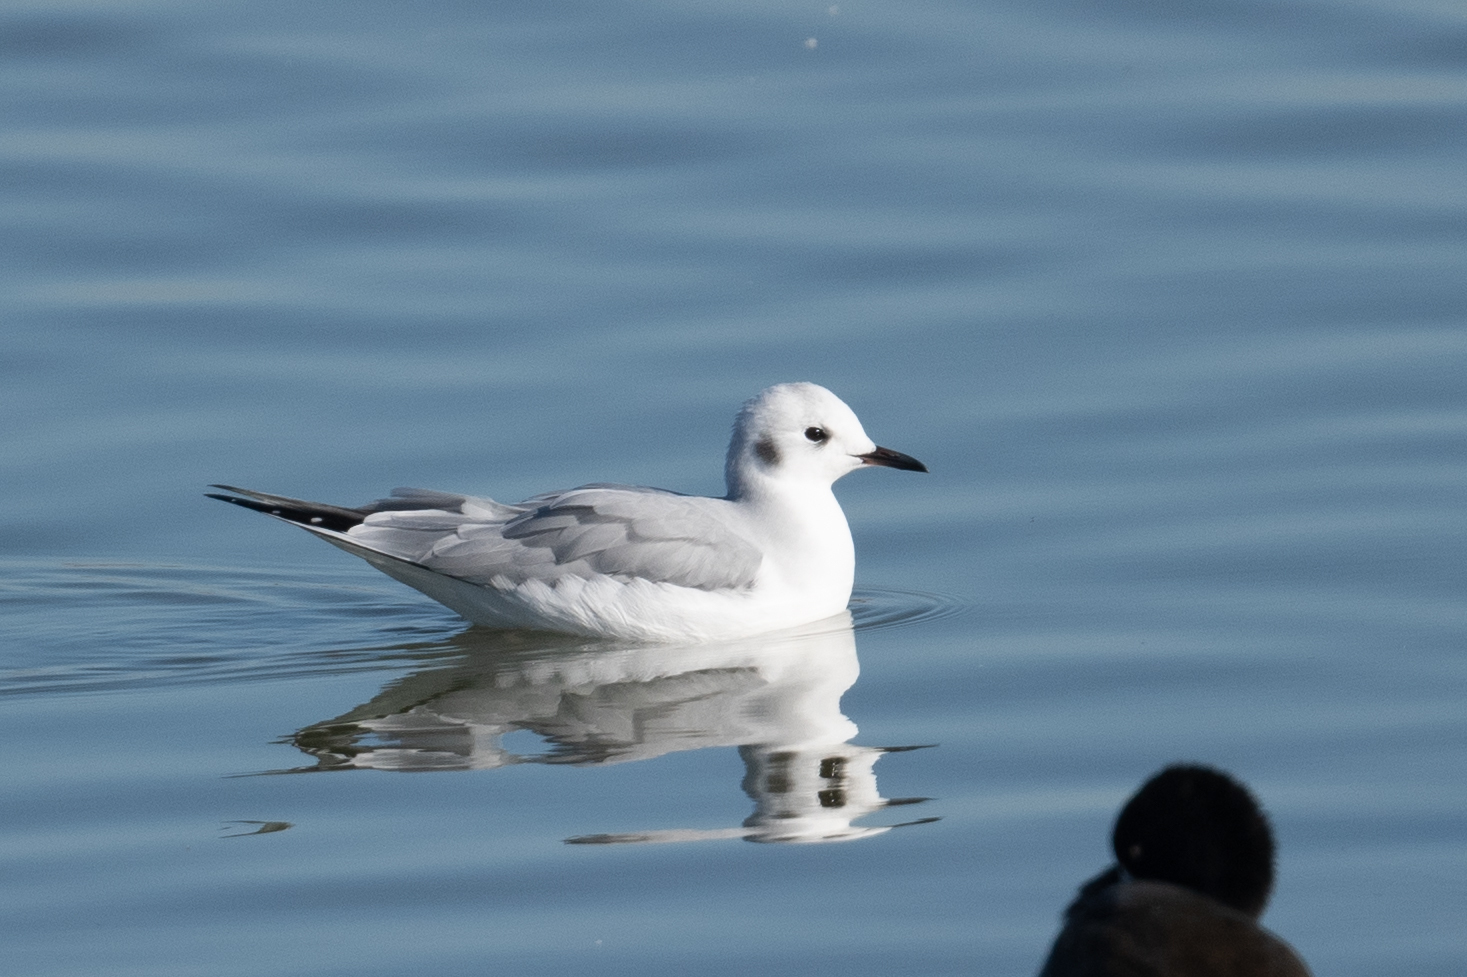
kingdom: Animalia
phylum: Chordata
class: Aves
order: Charadriiformes
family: Laridae
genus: Chroicocephalus
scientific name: Chroicocephalus philadelphia
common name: Bonaparte's gull
